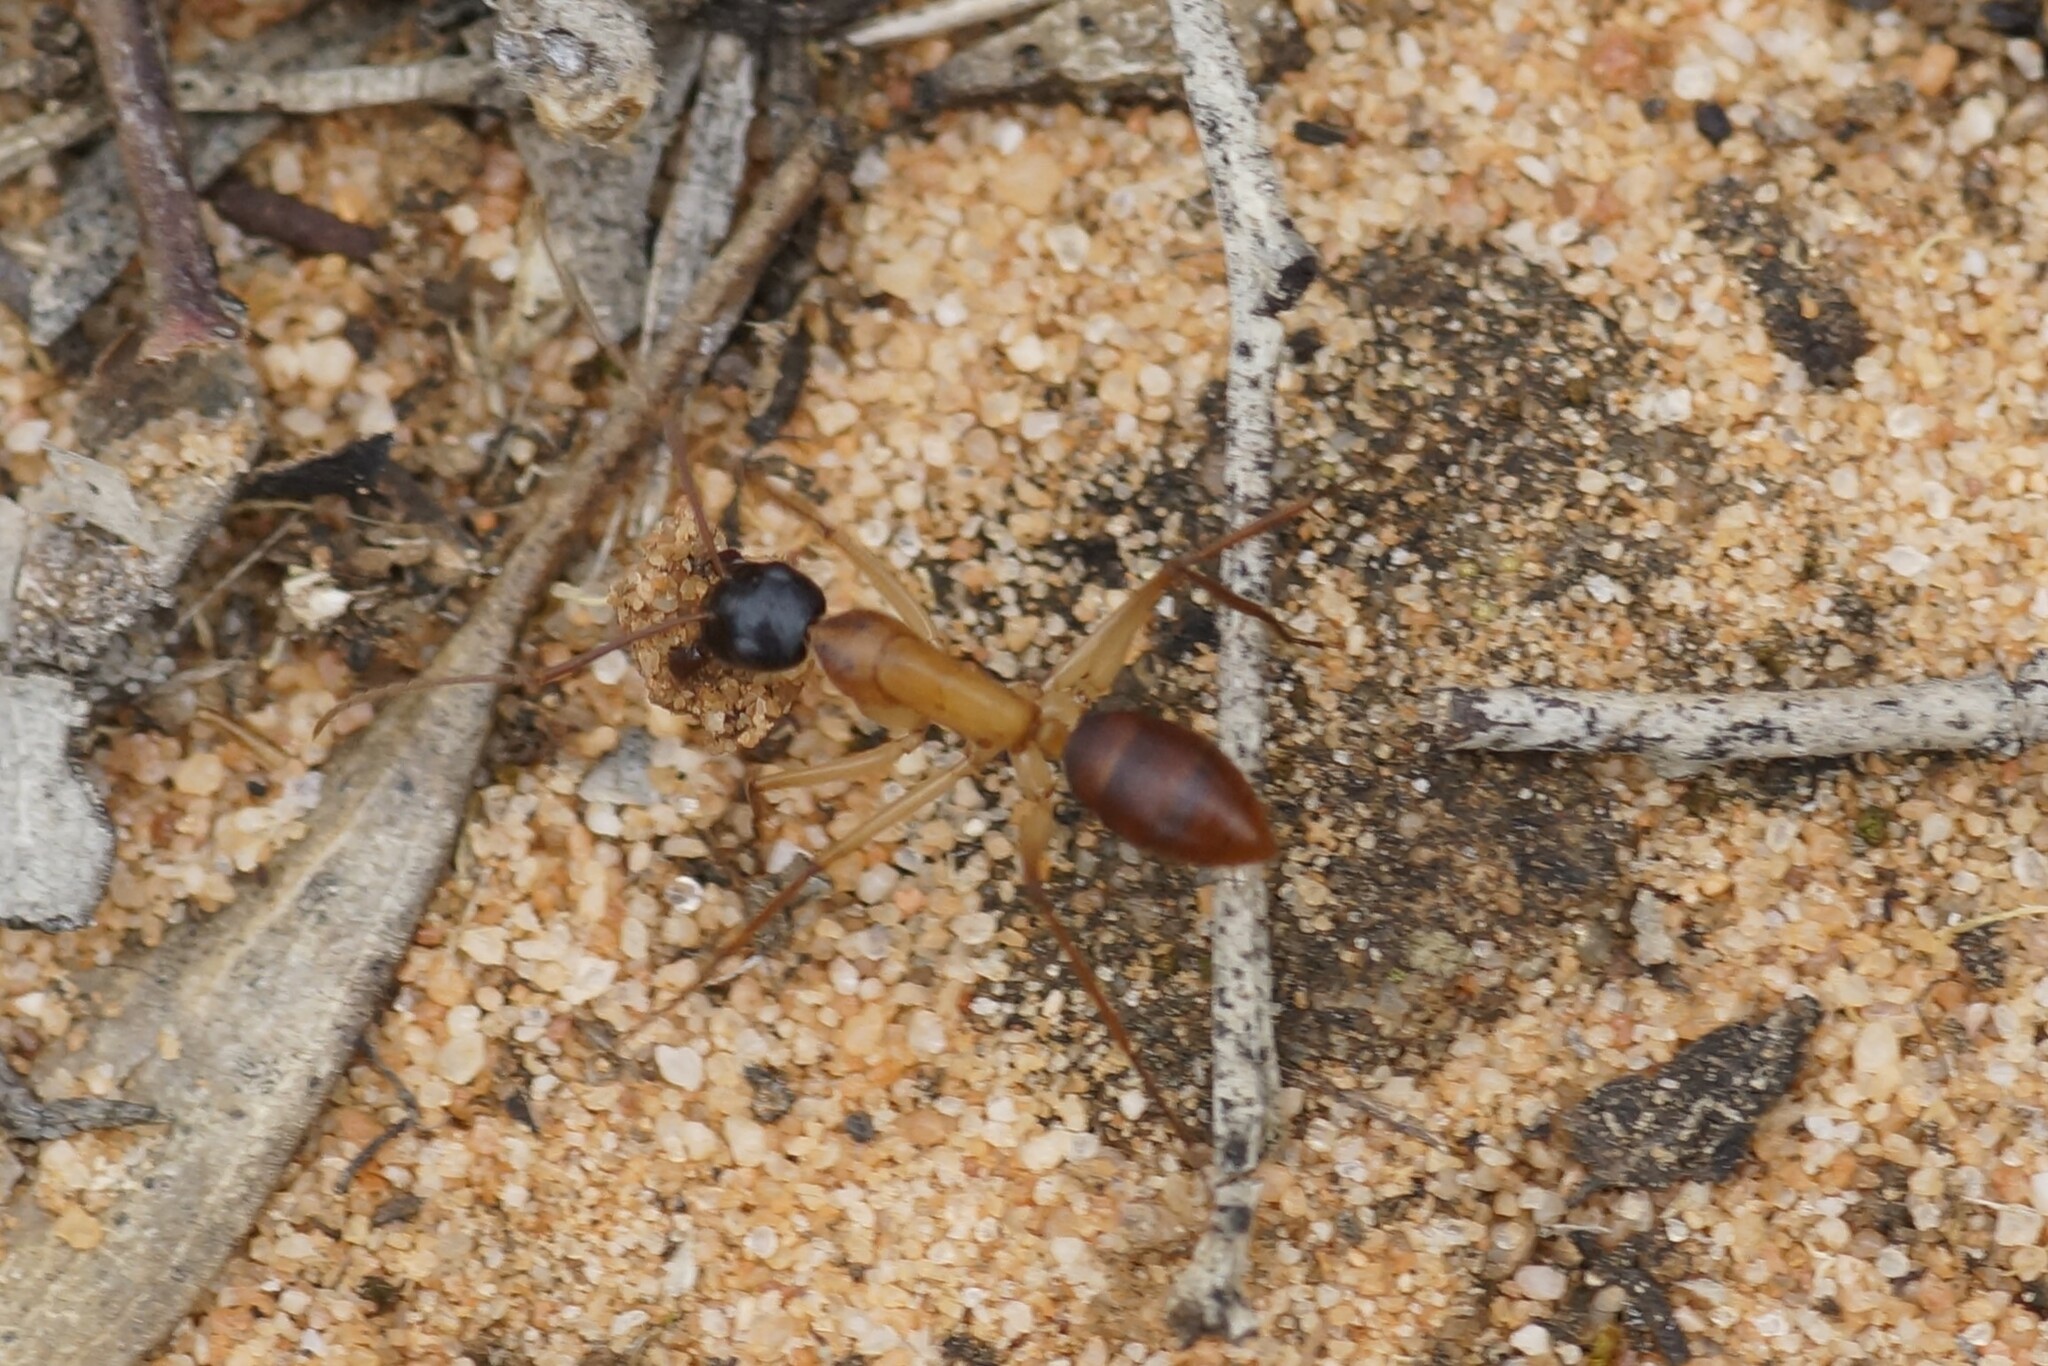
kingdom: Animalia
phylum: Arthropoda
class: Insecta
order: Hymenoptera
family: Formicidae
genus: Camponotus
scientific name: Camponotus nigriceps
